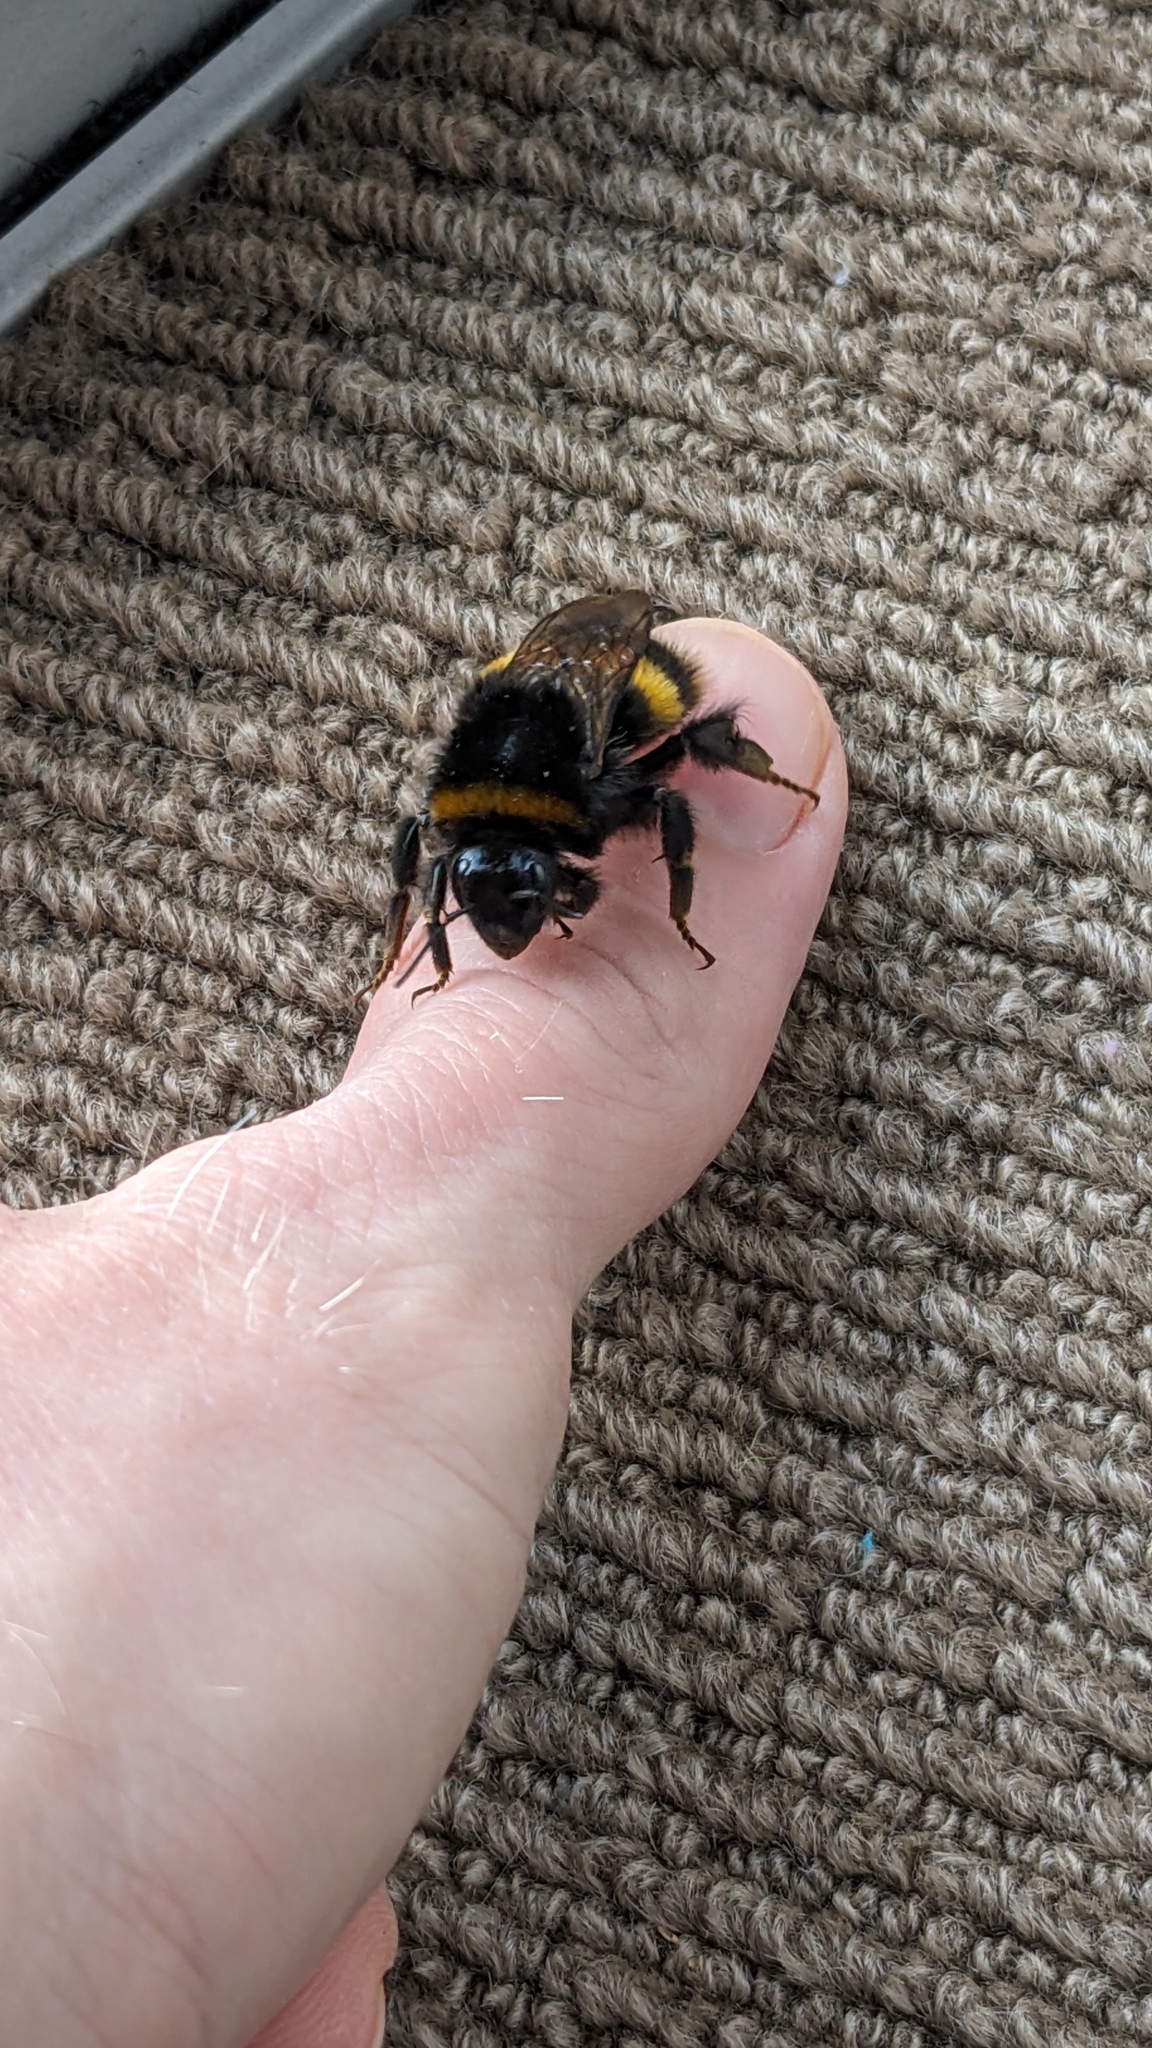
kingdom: Animalia
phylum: Arthropoda
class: Insecta
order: Hymenoptera
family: Apidae
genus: Bombus
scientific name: Bombus terrestris
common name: Buff-tailed bumblebee
